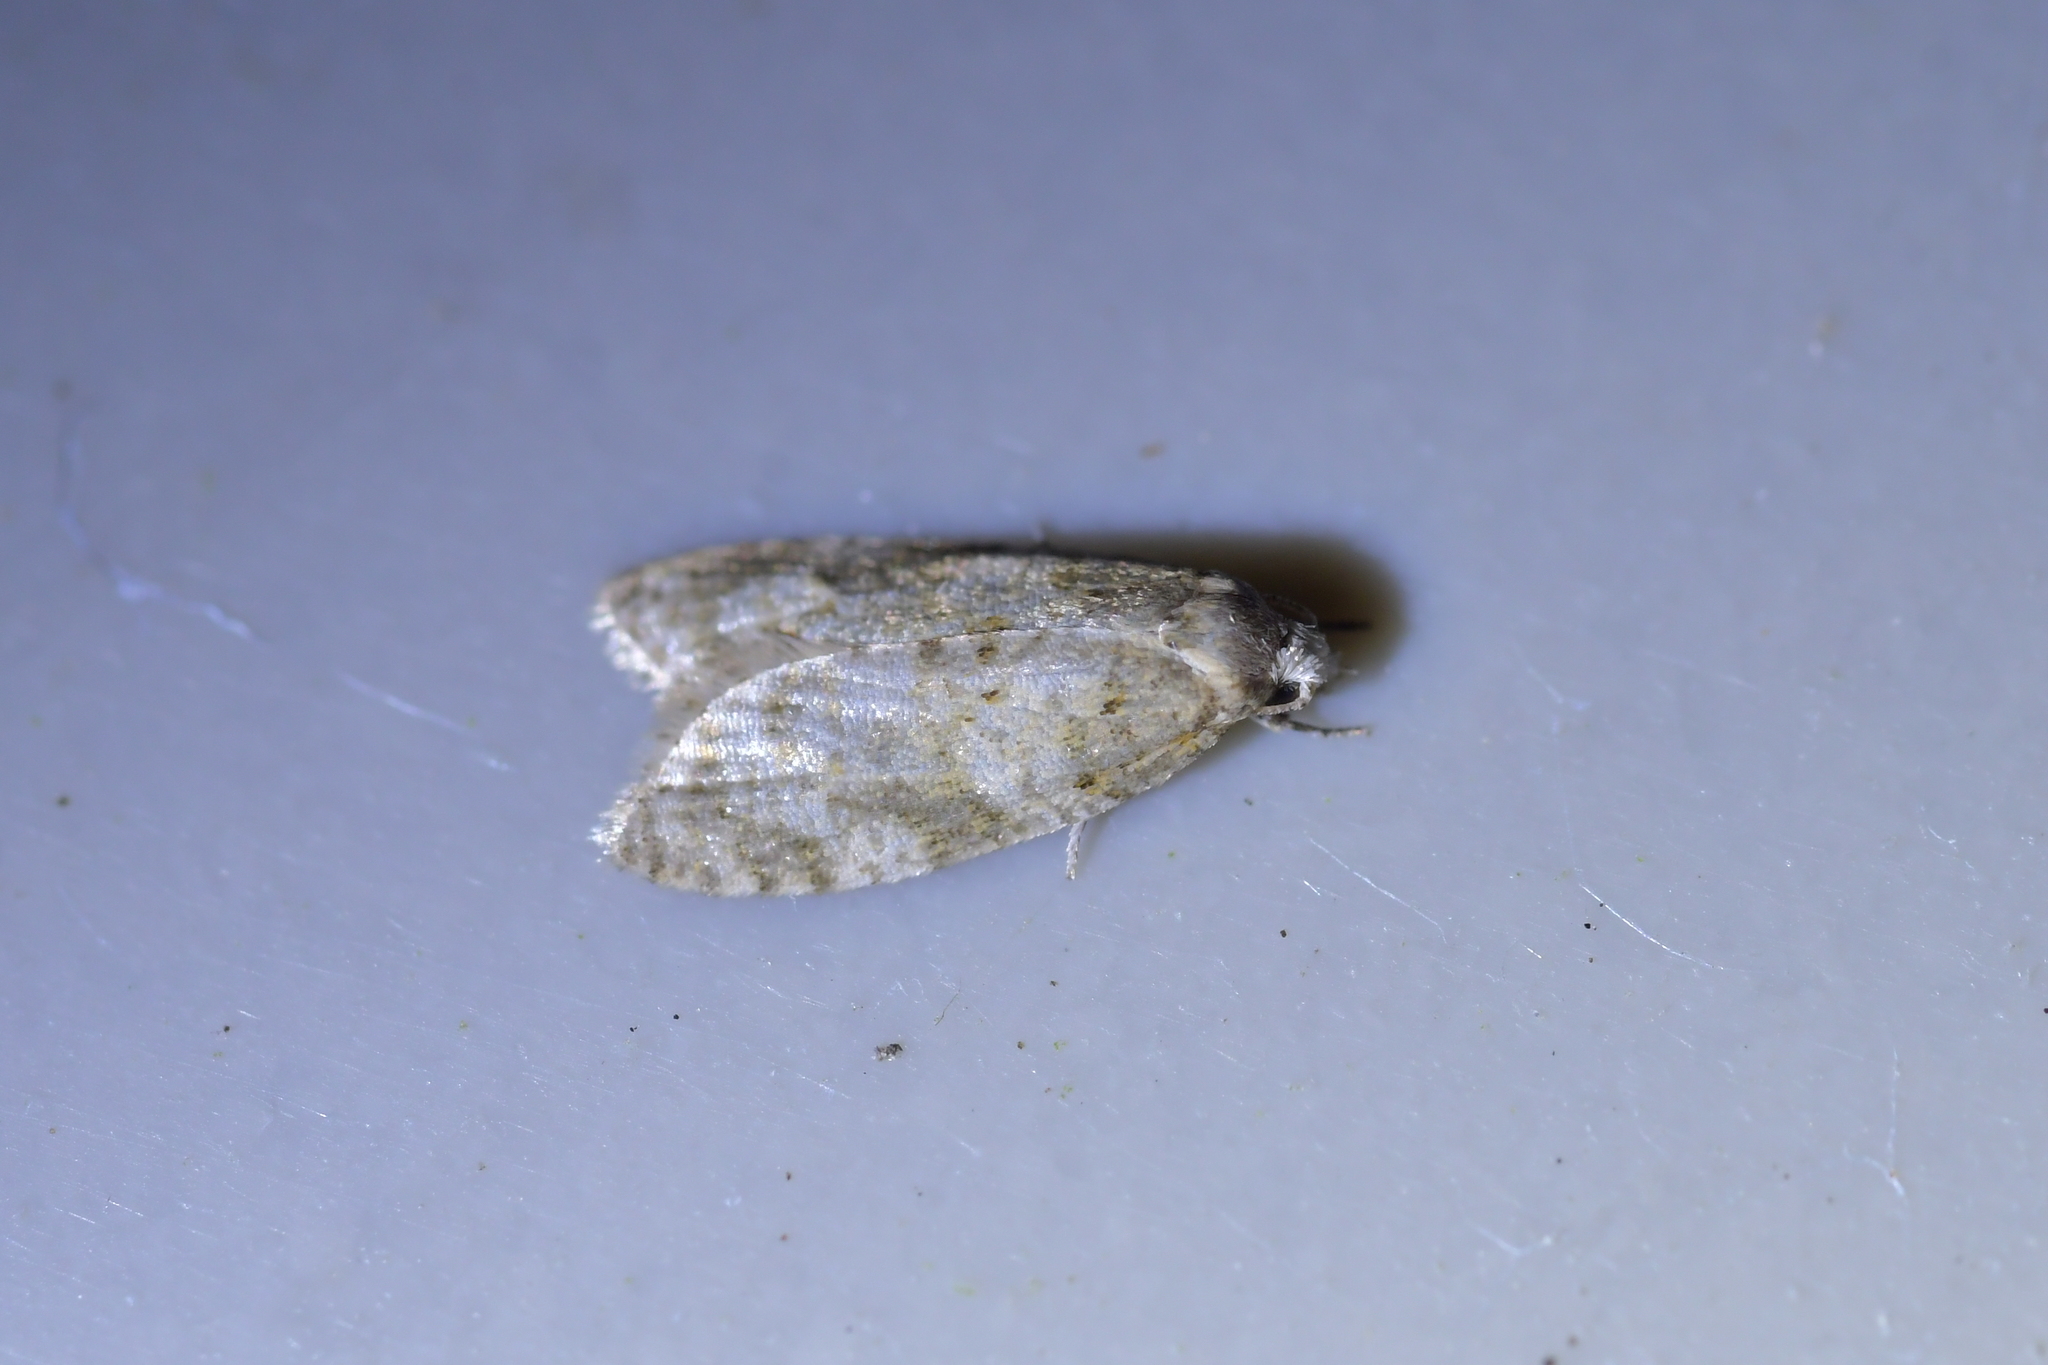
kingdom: Animalia
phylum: Arthropoda
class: Insecta
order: Lepidoptera
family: Tortricidae
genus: Dipterina
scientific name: Dipterina imbriferana
